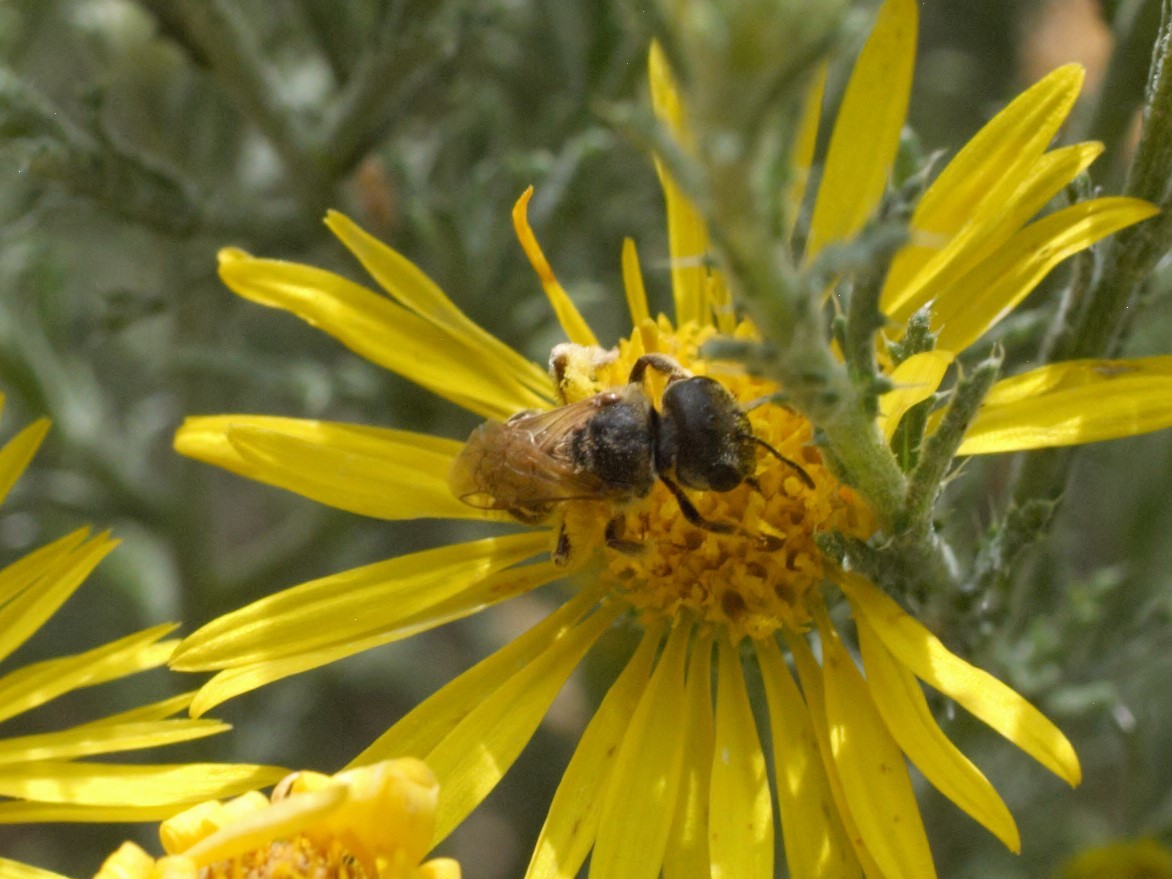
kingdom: Animalia
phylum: Arthropoda
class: Insecta
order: Hymenoptera
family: Halictidae
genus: Halictus
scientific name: Halictus ligatus
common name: Ligated furrow bee
